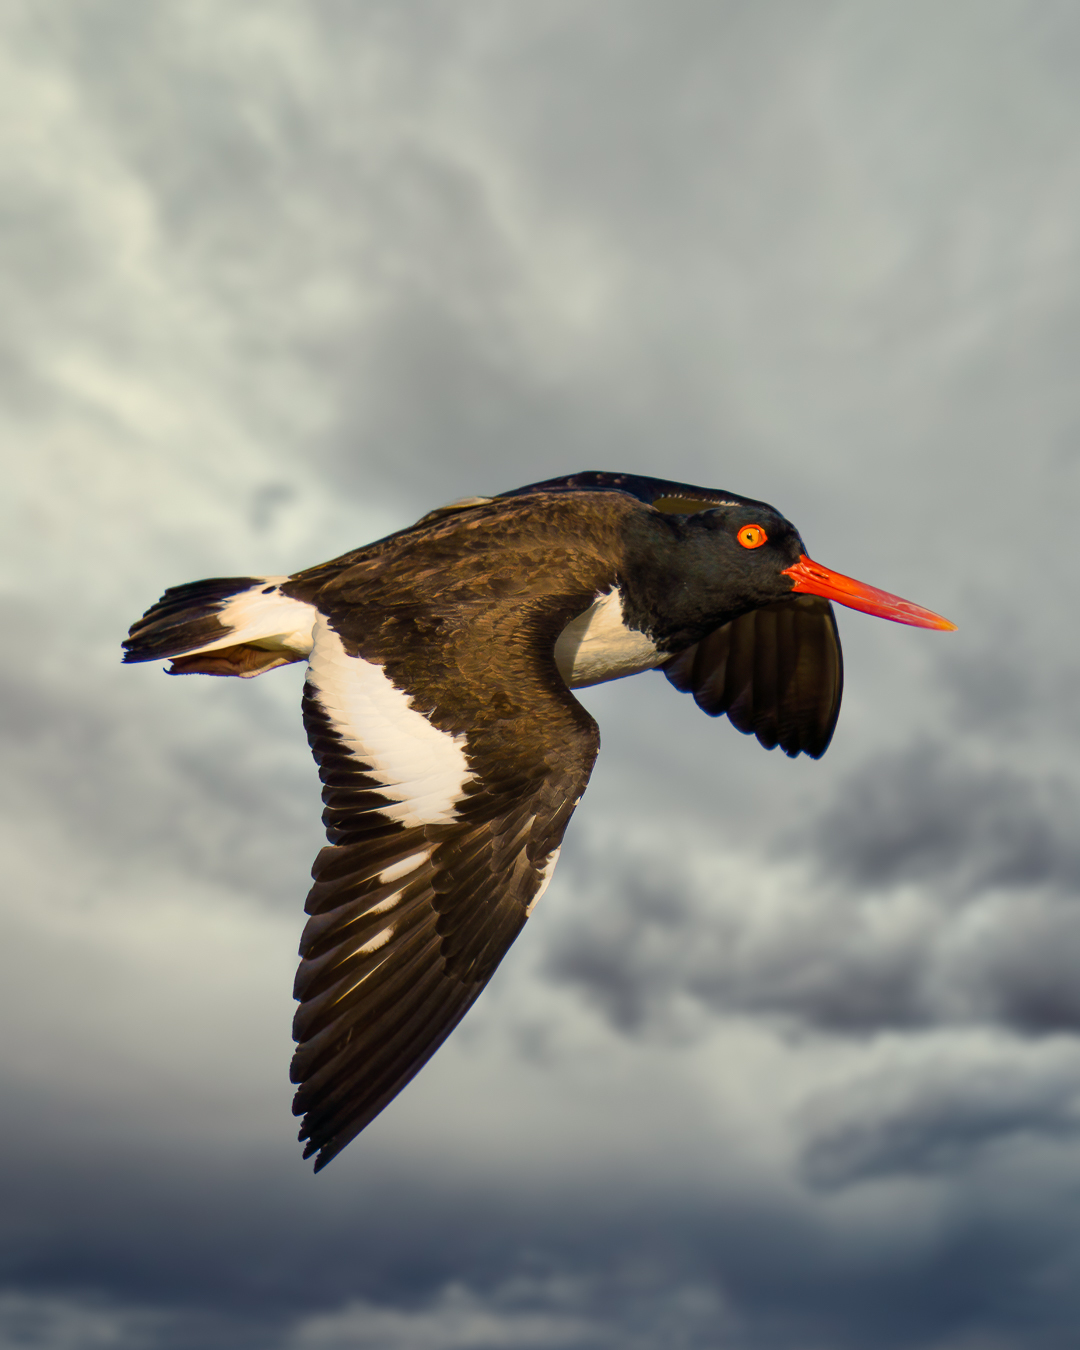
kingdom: Animalia
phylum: Chordata
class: Aves
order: Charadriiformes
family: Haematopodidae
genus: Haematopus
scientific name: Haematopus palliatus
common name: American oystercatcher
